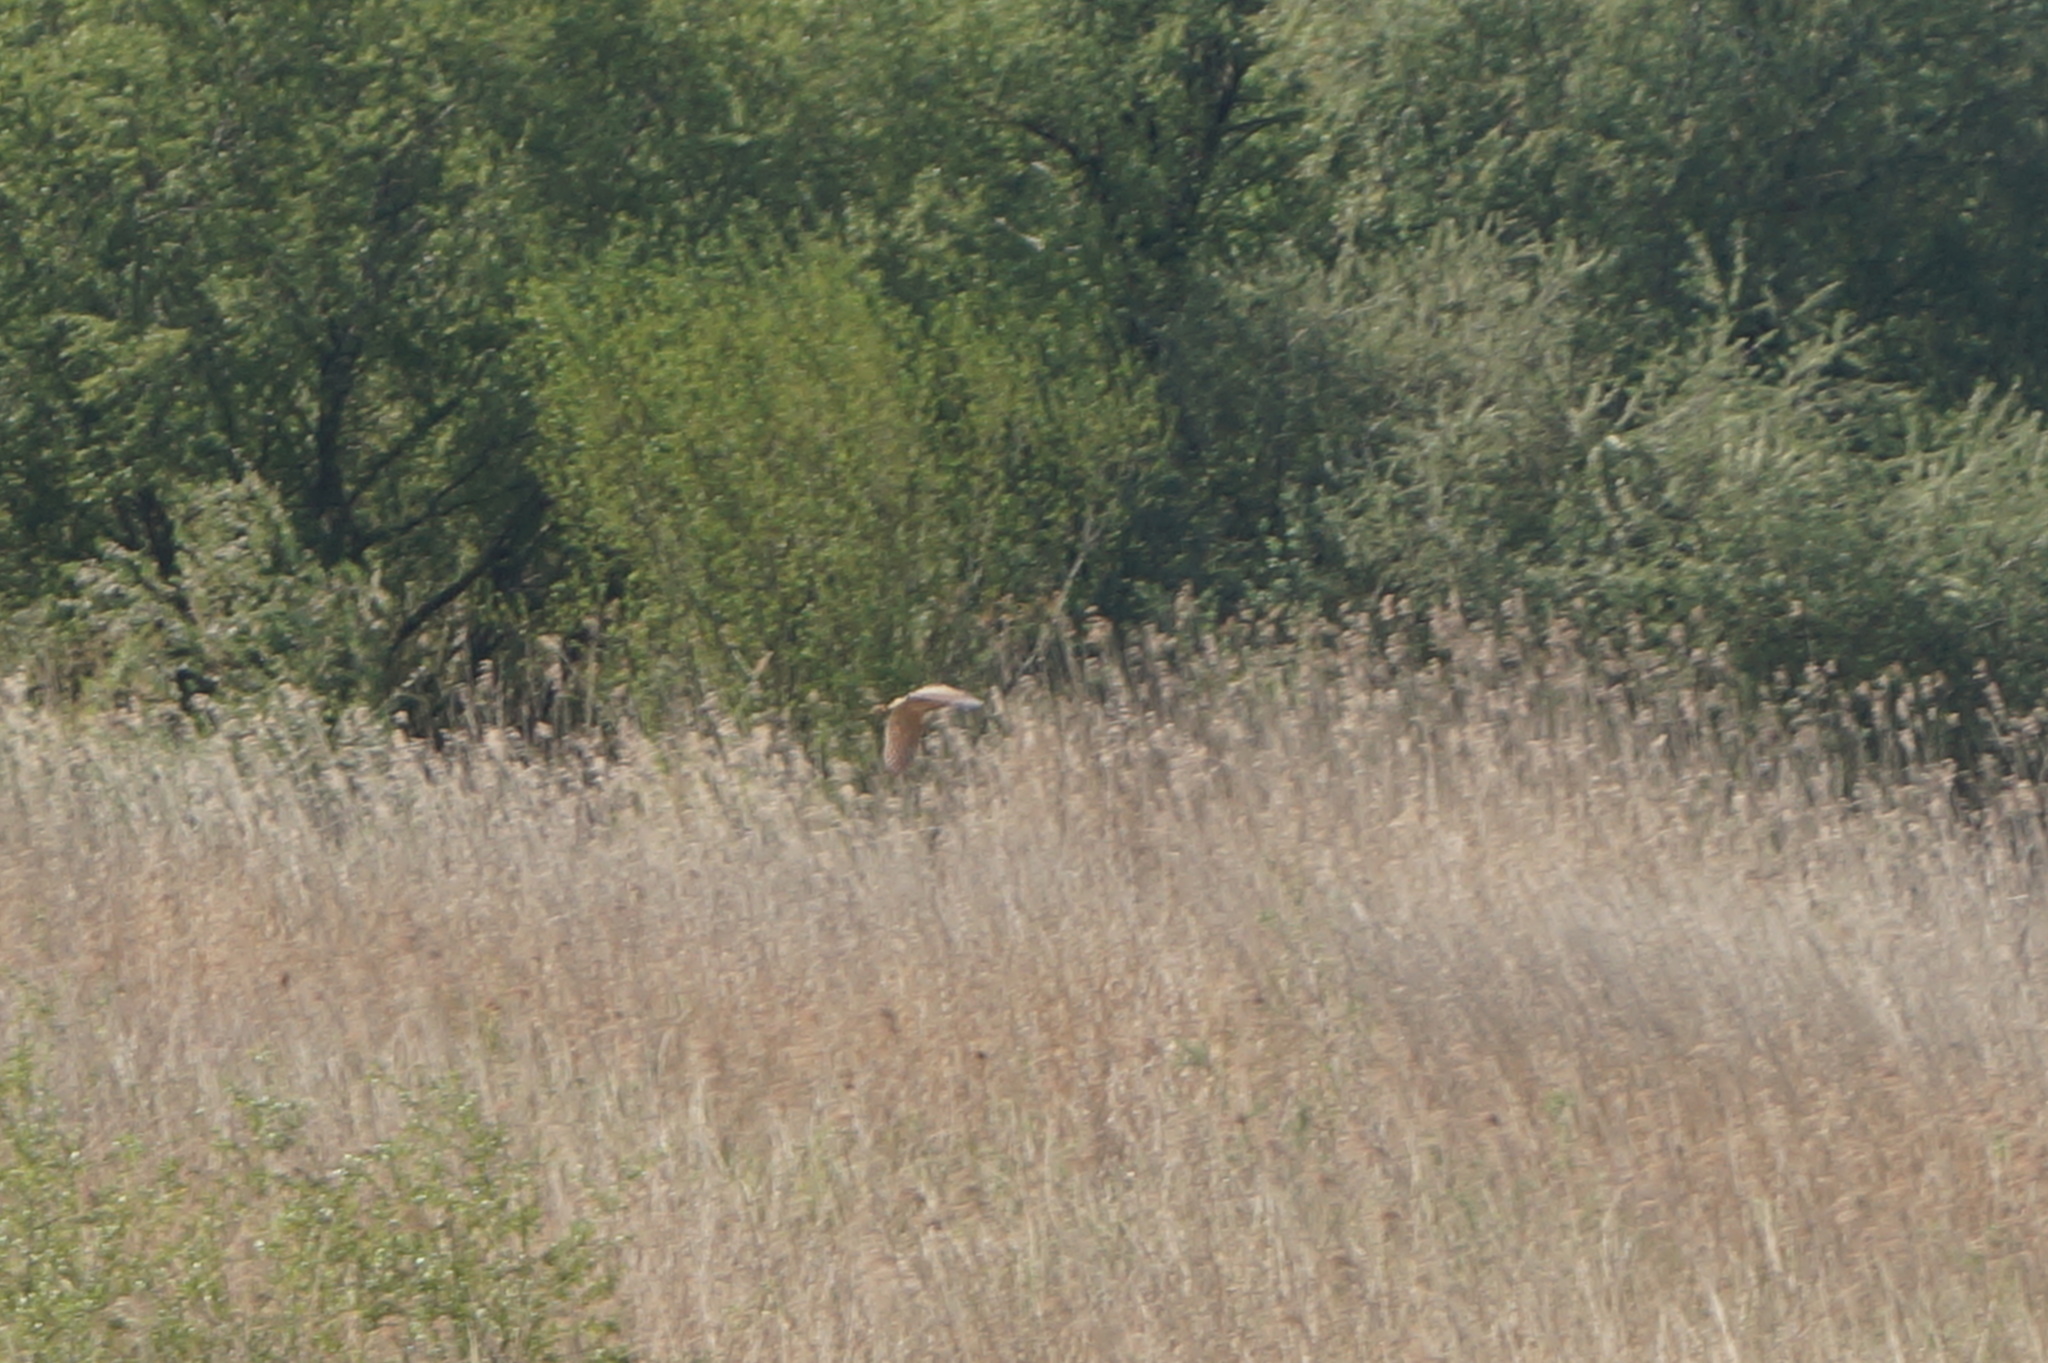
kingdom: Animalia
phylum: Chordata
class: Aves
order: Pelecaniformes
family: Ardeidae
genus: Botaurus
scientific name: Botaurus stellaris
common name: Eurasian bittern
